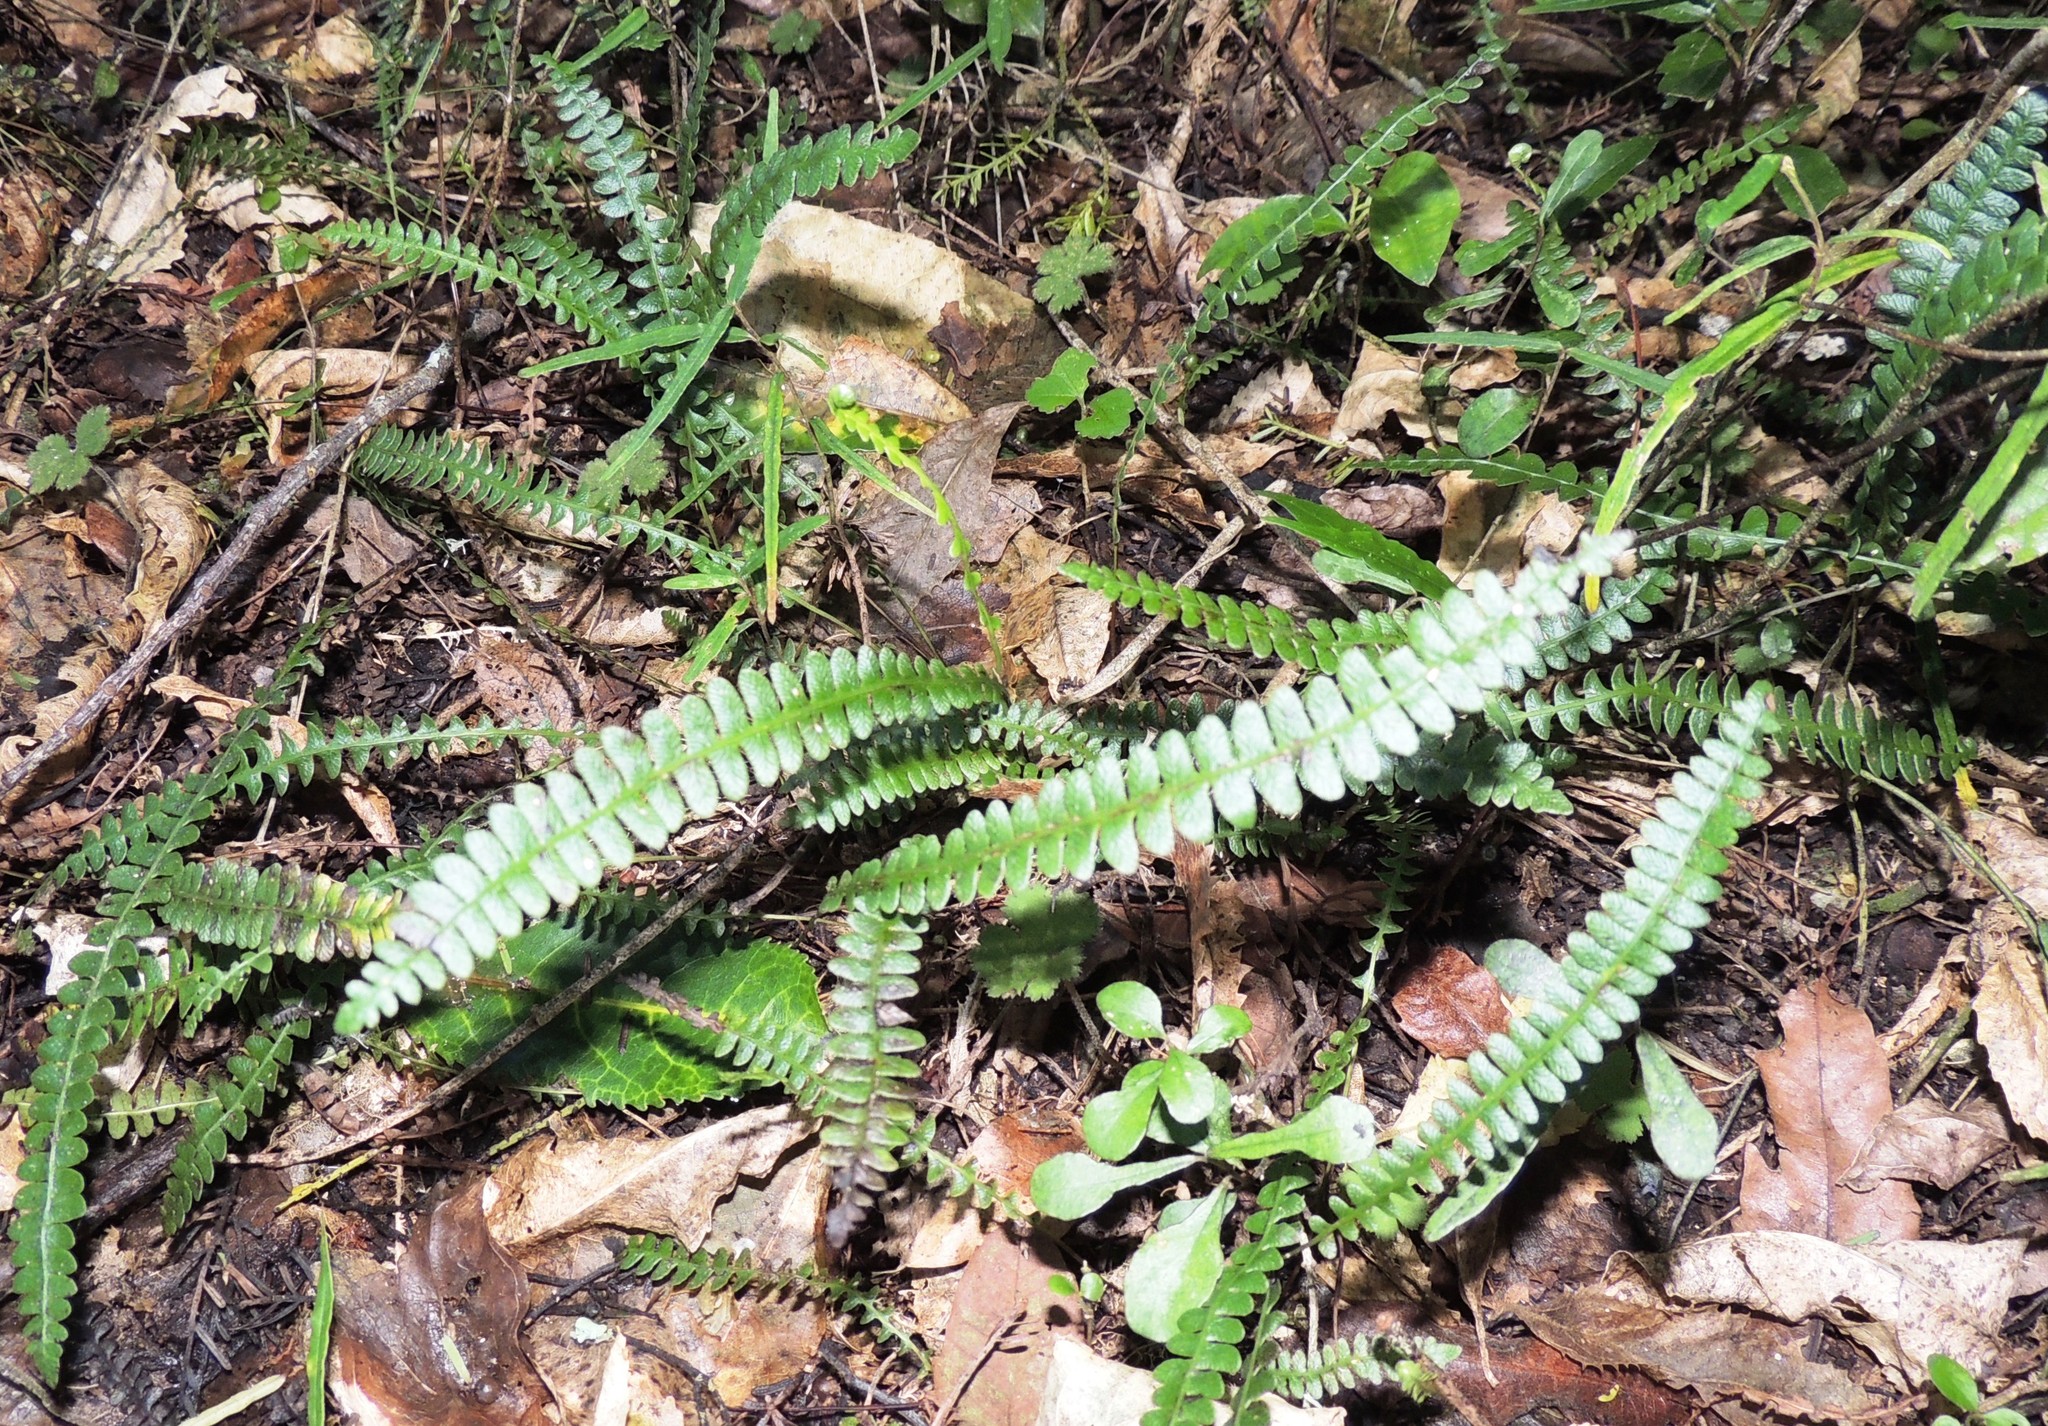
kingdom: Plantae
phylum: Tracheophyta
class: Polypodiopsida
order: Polypodiales
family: Blechnaceae
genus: Austroblechnum
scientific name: Austroblechnum penna-marina
